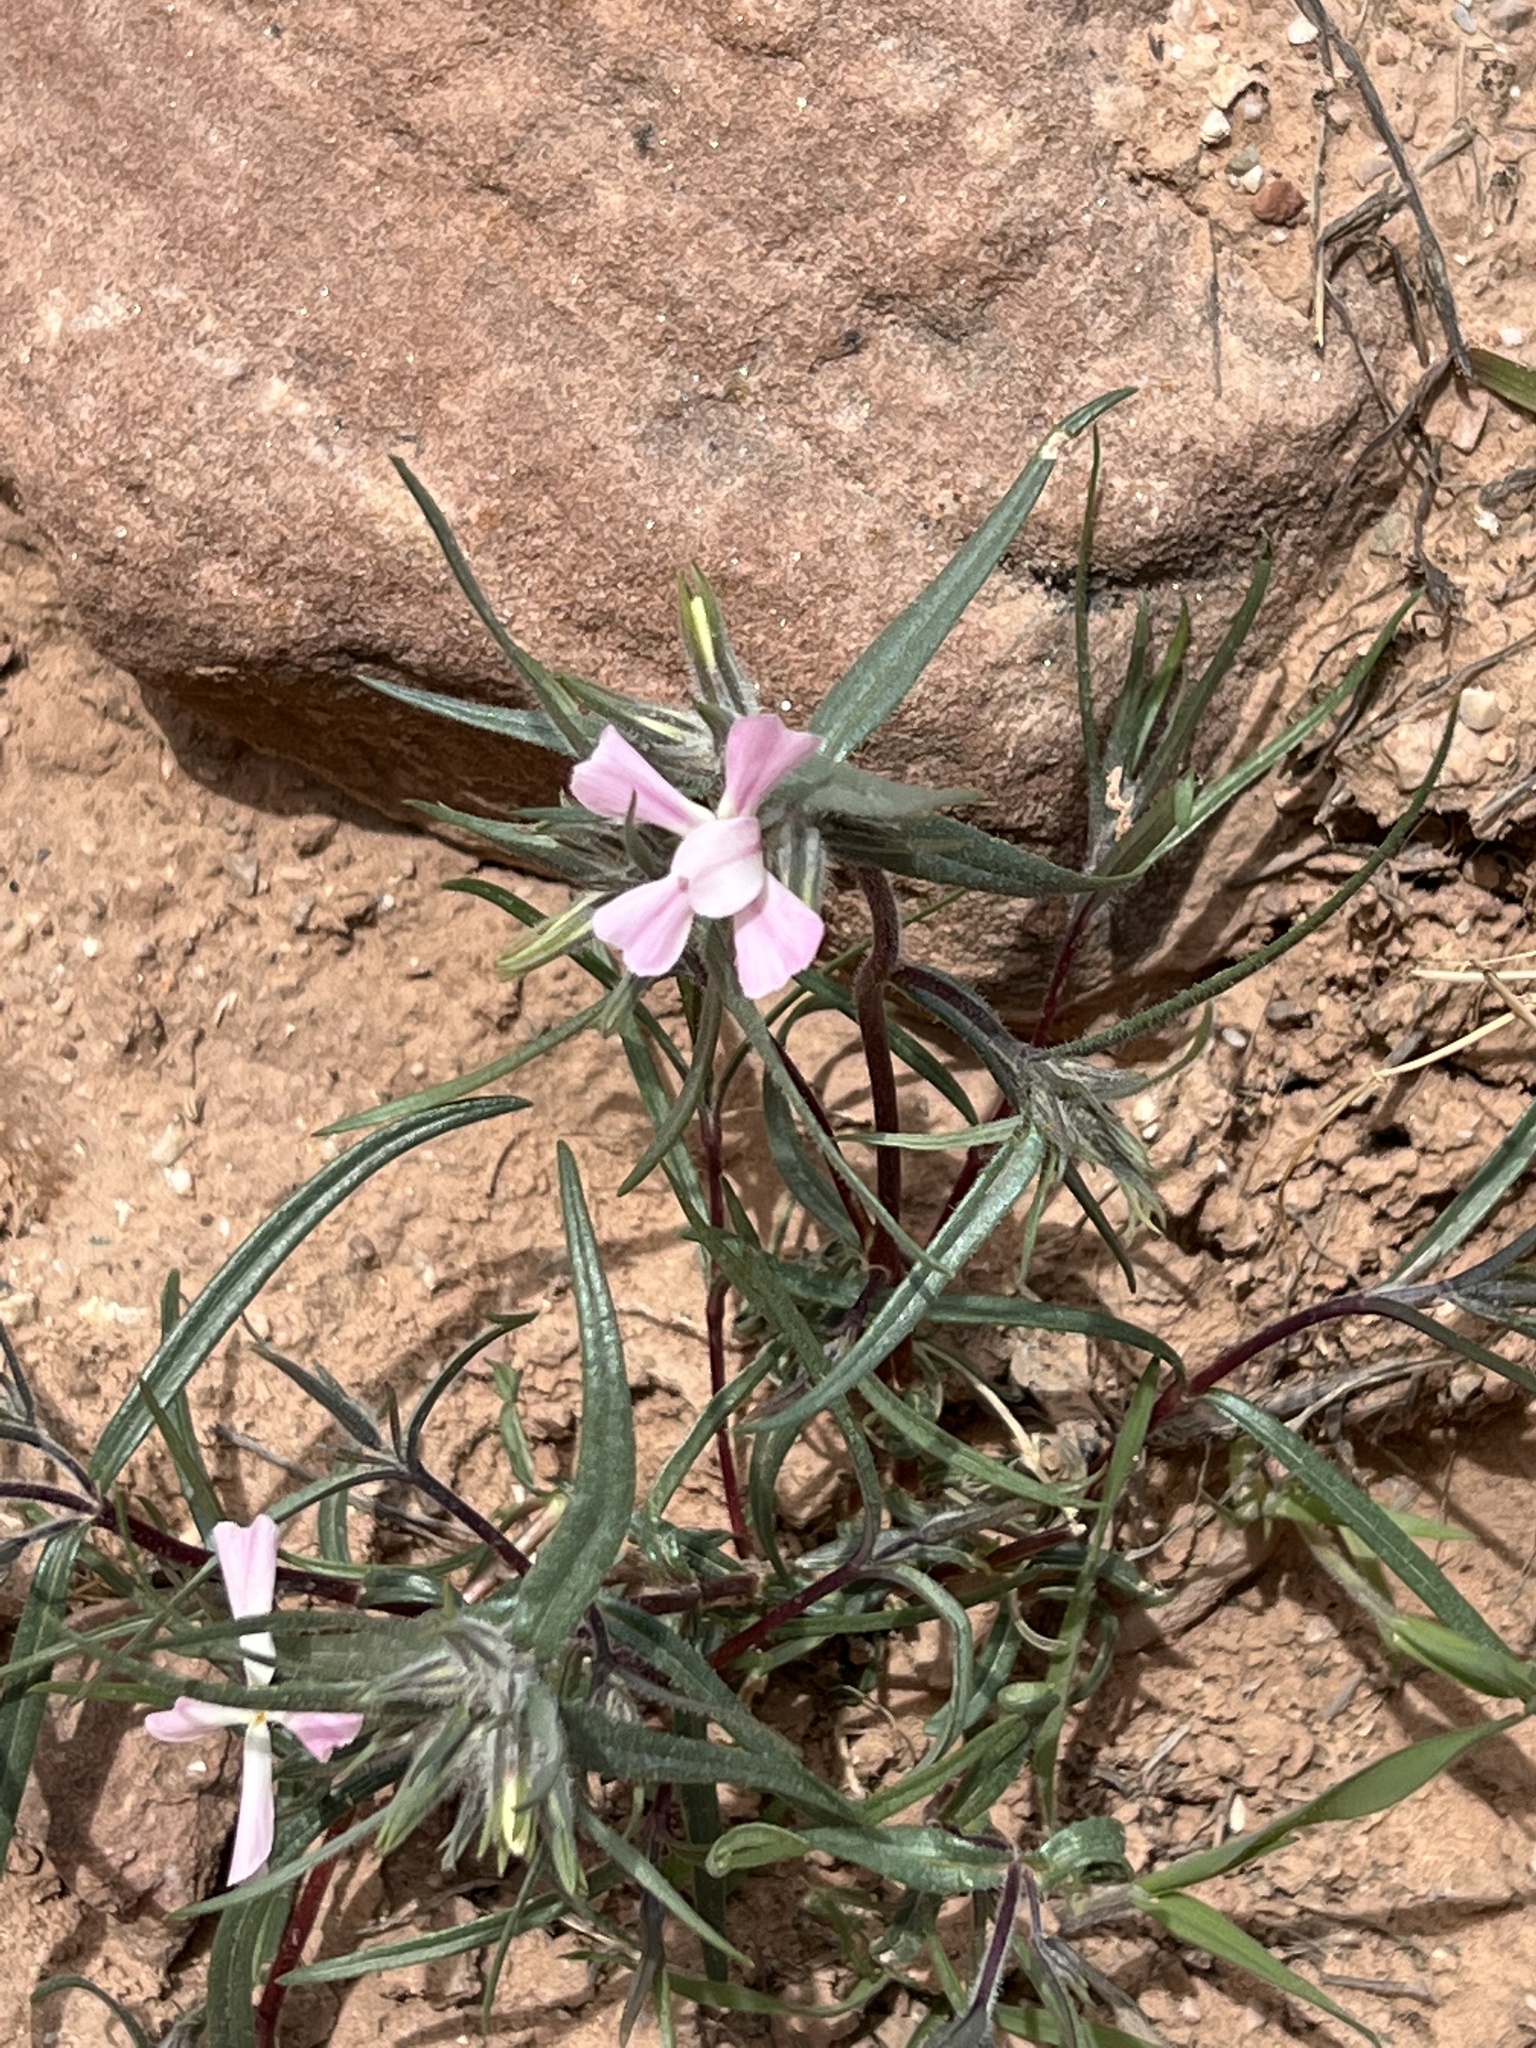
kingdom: Plantae
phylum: Tracheophyta
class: Magnoliopsida
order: Ericales
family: Polemoniaceae
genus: Phlox
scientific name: Phlox longifolia
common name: Longleaf phlox
